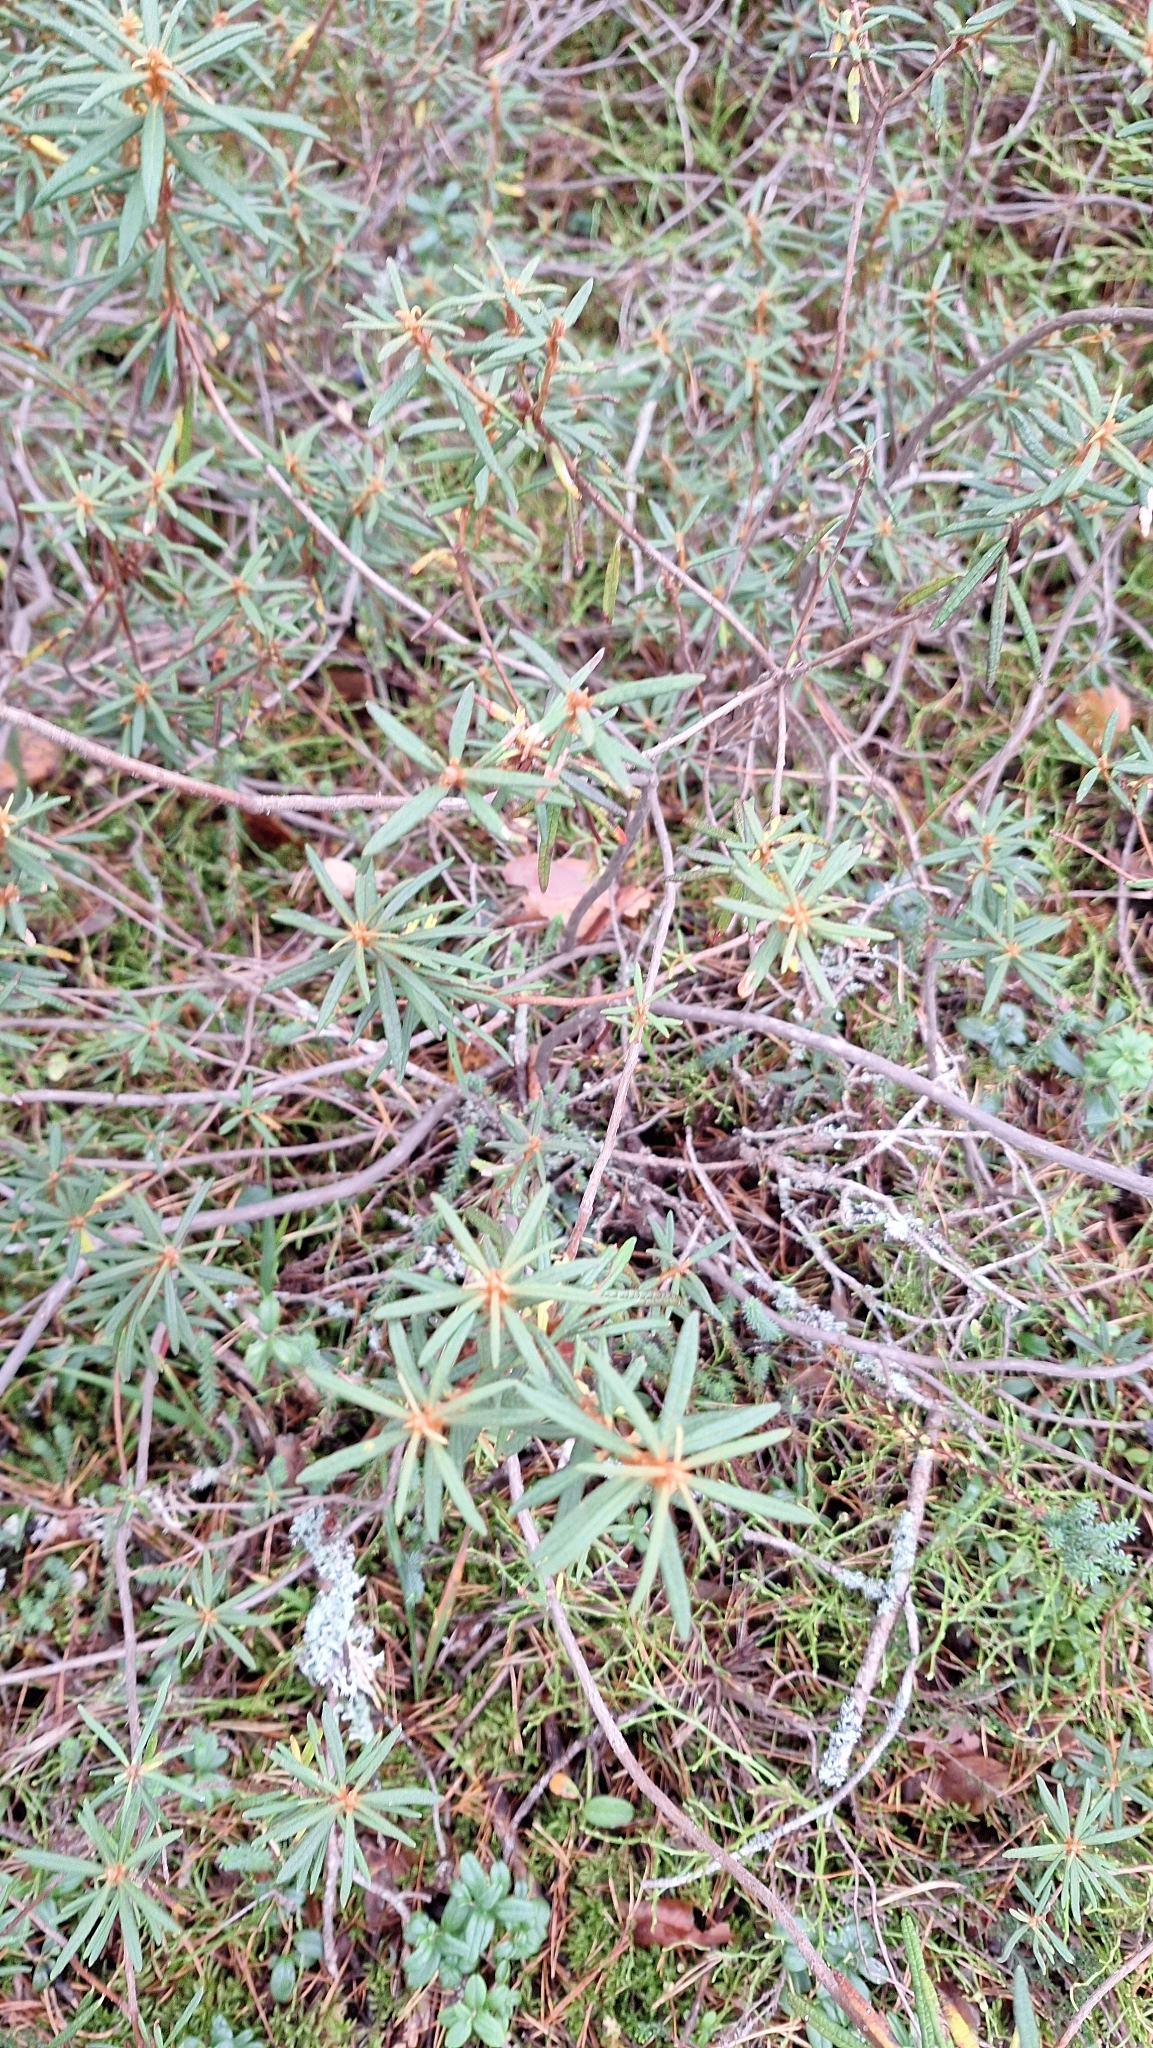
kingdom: Plantae
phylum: Tracheophyta
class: Magnoliopsida
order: Ericales
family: Ericaceae
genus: Rhododendron
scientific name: Rhododendron tomentosum
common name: Marsh labrador tea
